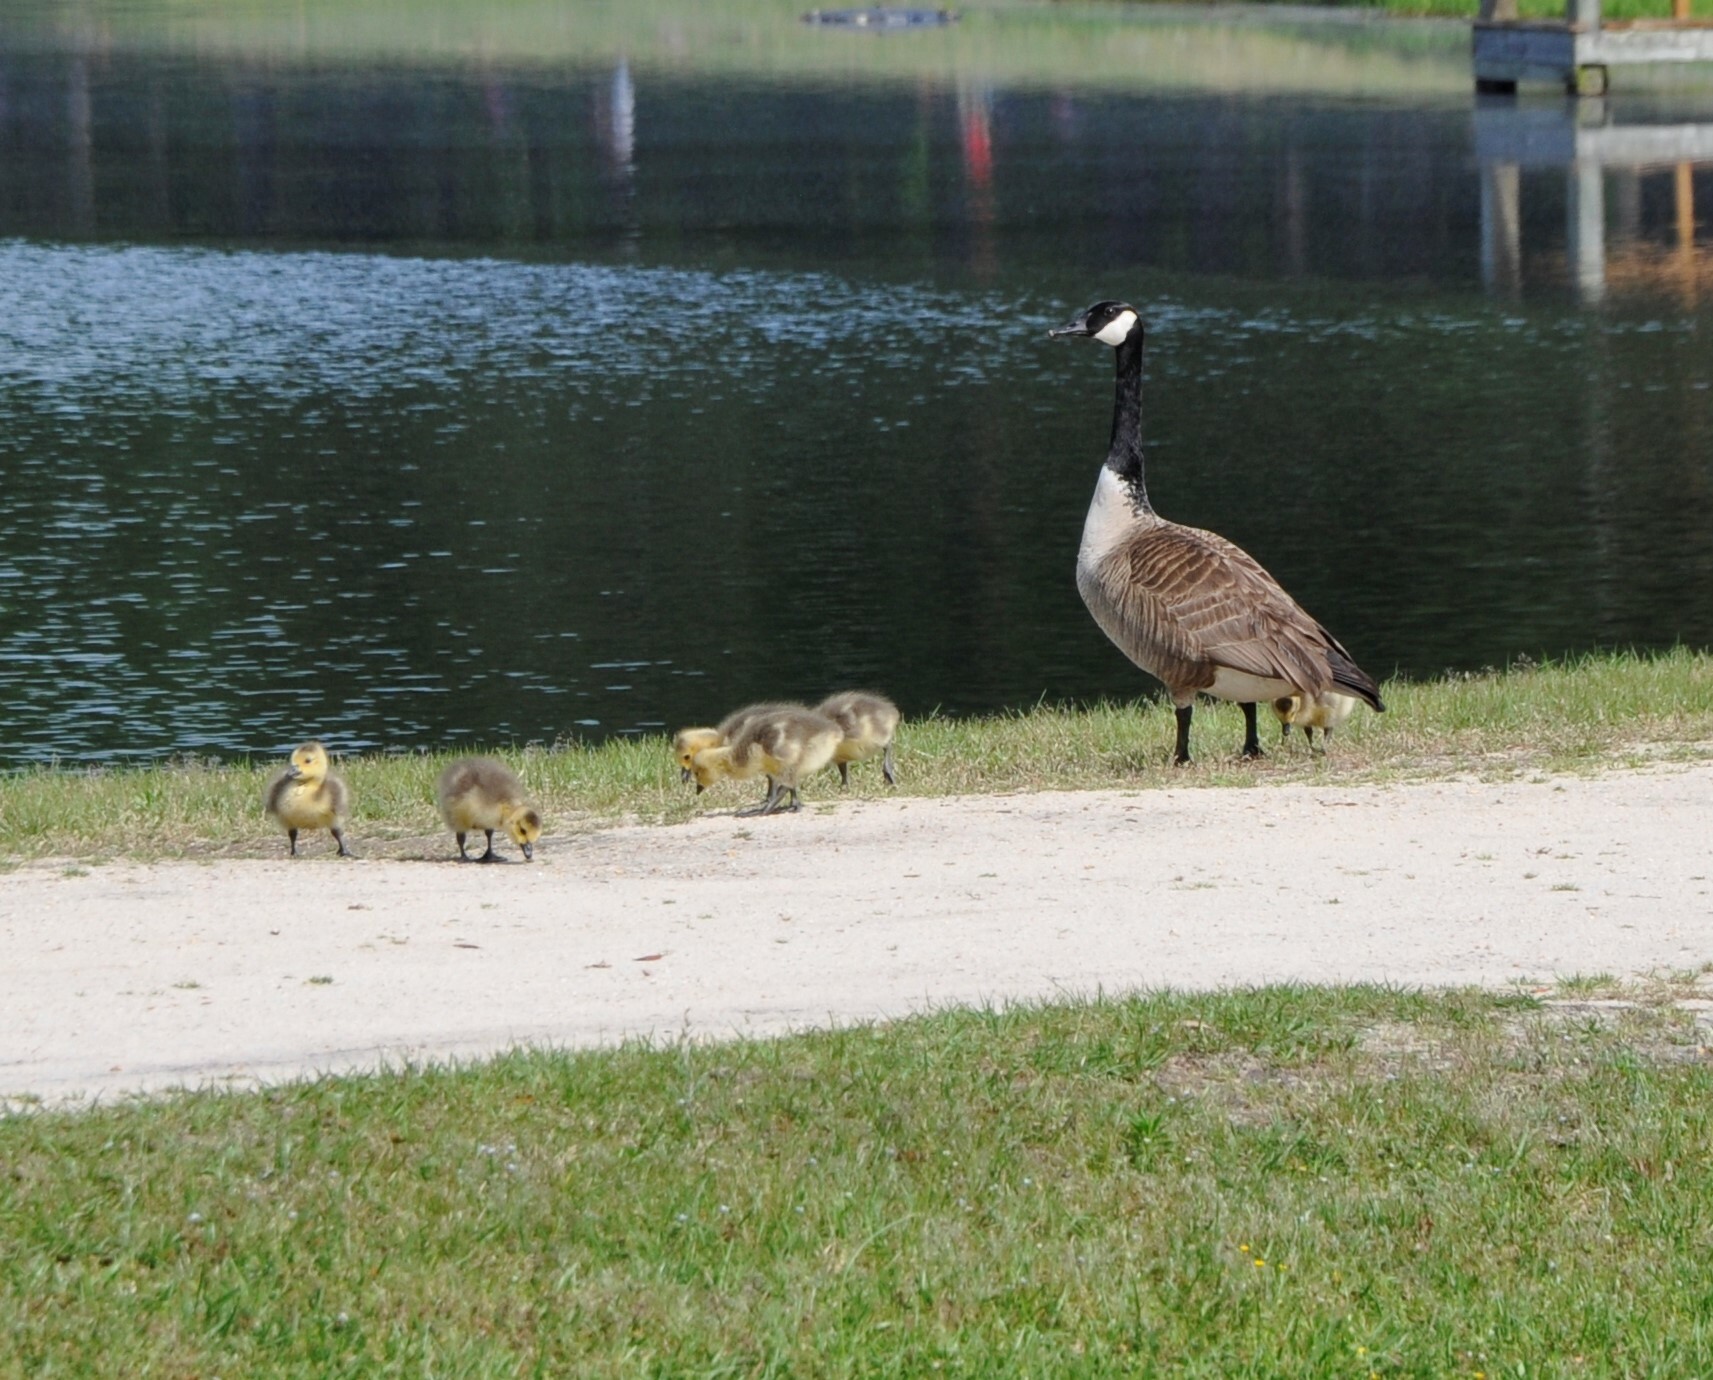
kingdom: Animalia
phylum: Chordata
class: Aves
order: Anseriformes
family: Anatidae
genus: Branta
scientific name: Branta canadensis
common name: Canada goose
